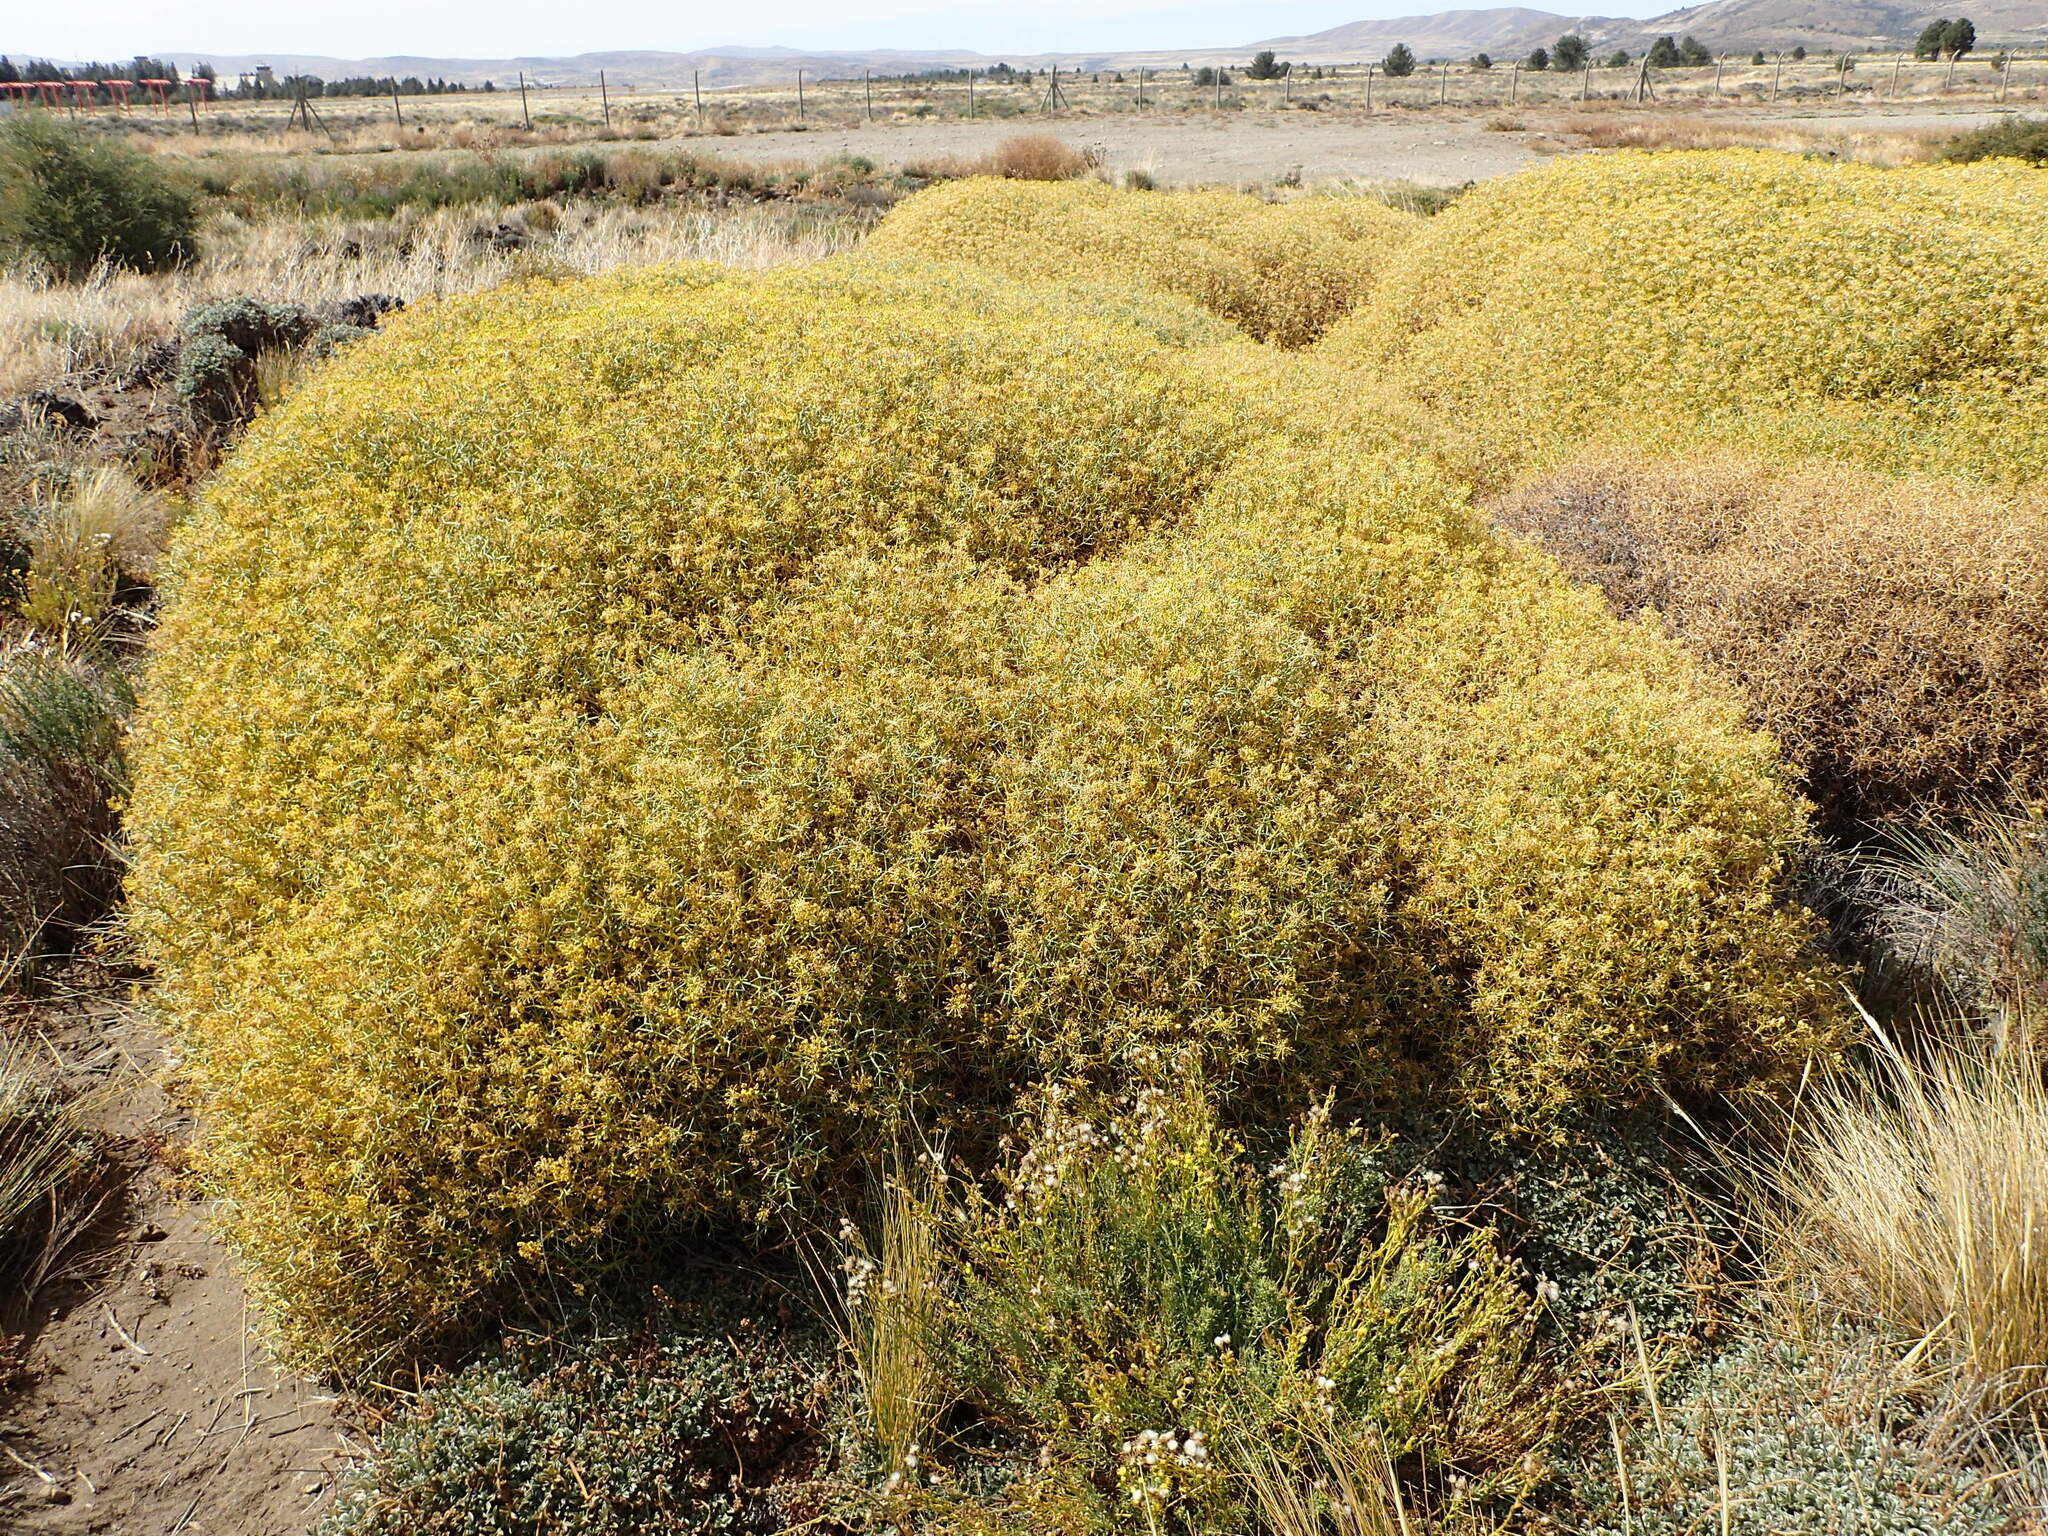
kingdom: Plantae
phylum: Tracheophyta
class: Magnoliopsida
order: Apiales
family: Apiaceae
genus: Azorella
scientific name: Azorella prolifera
